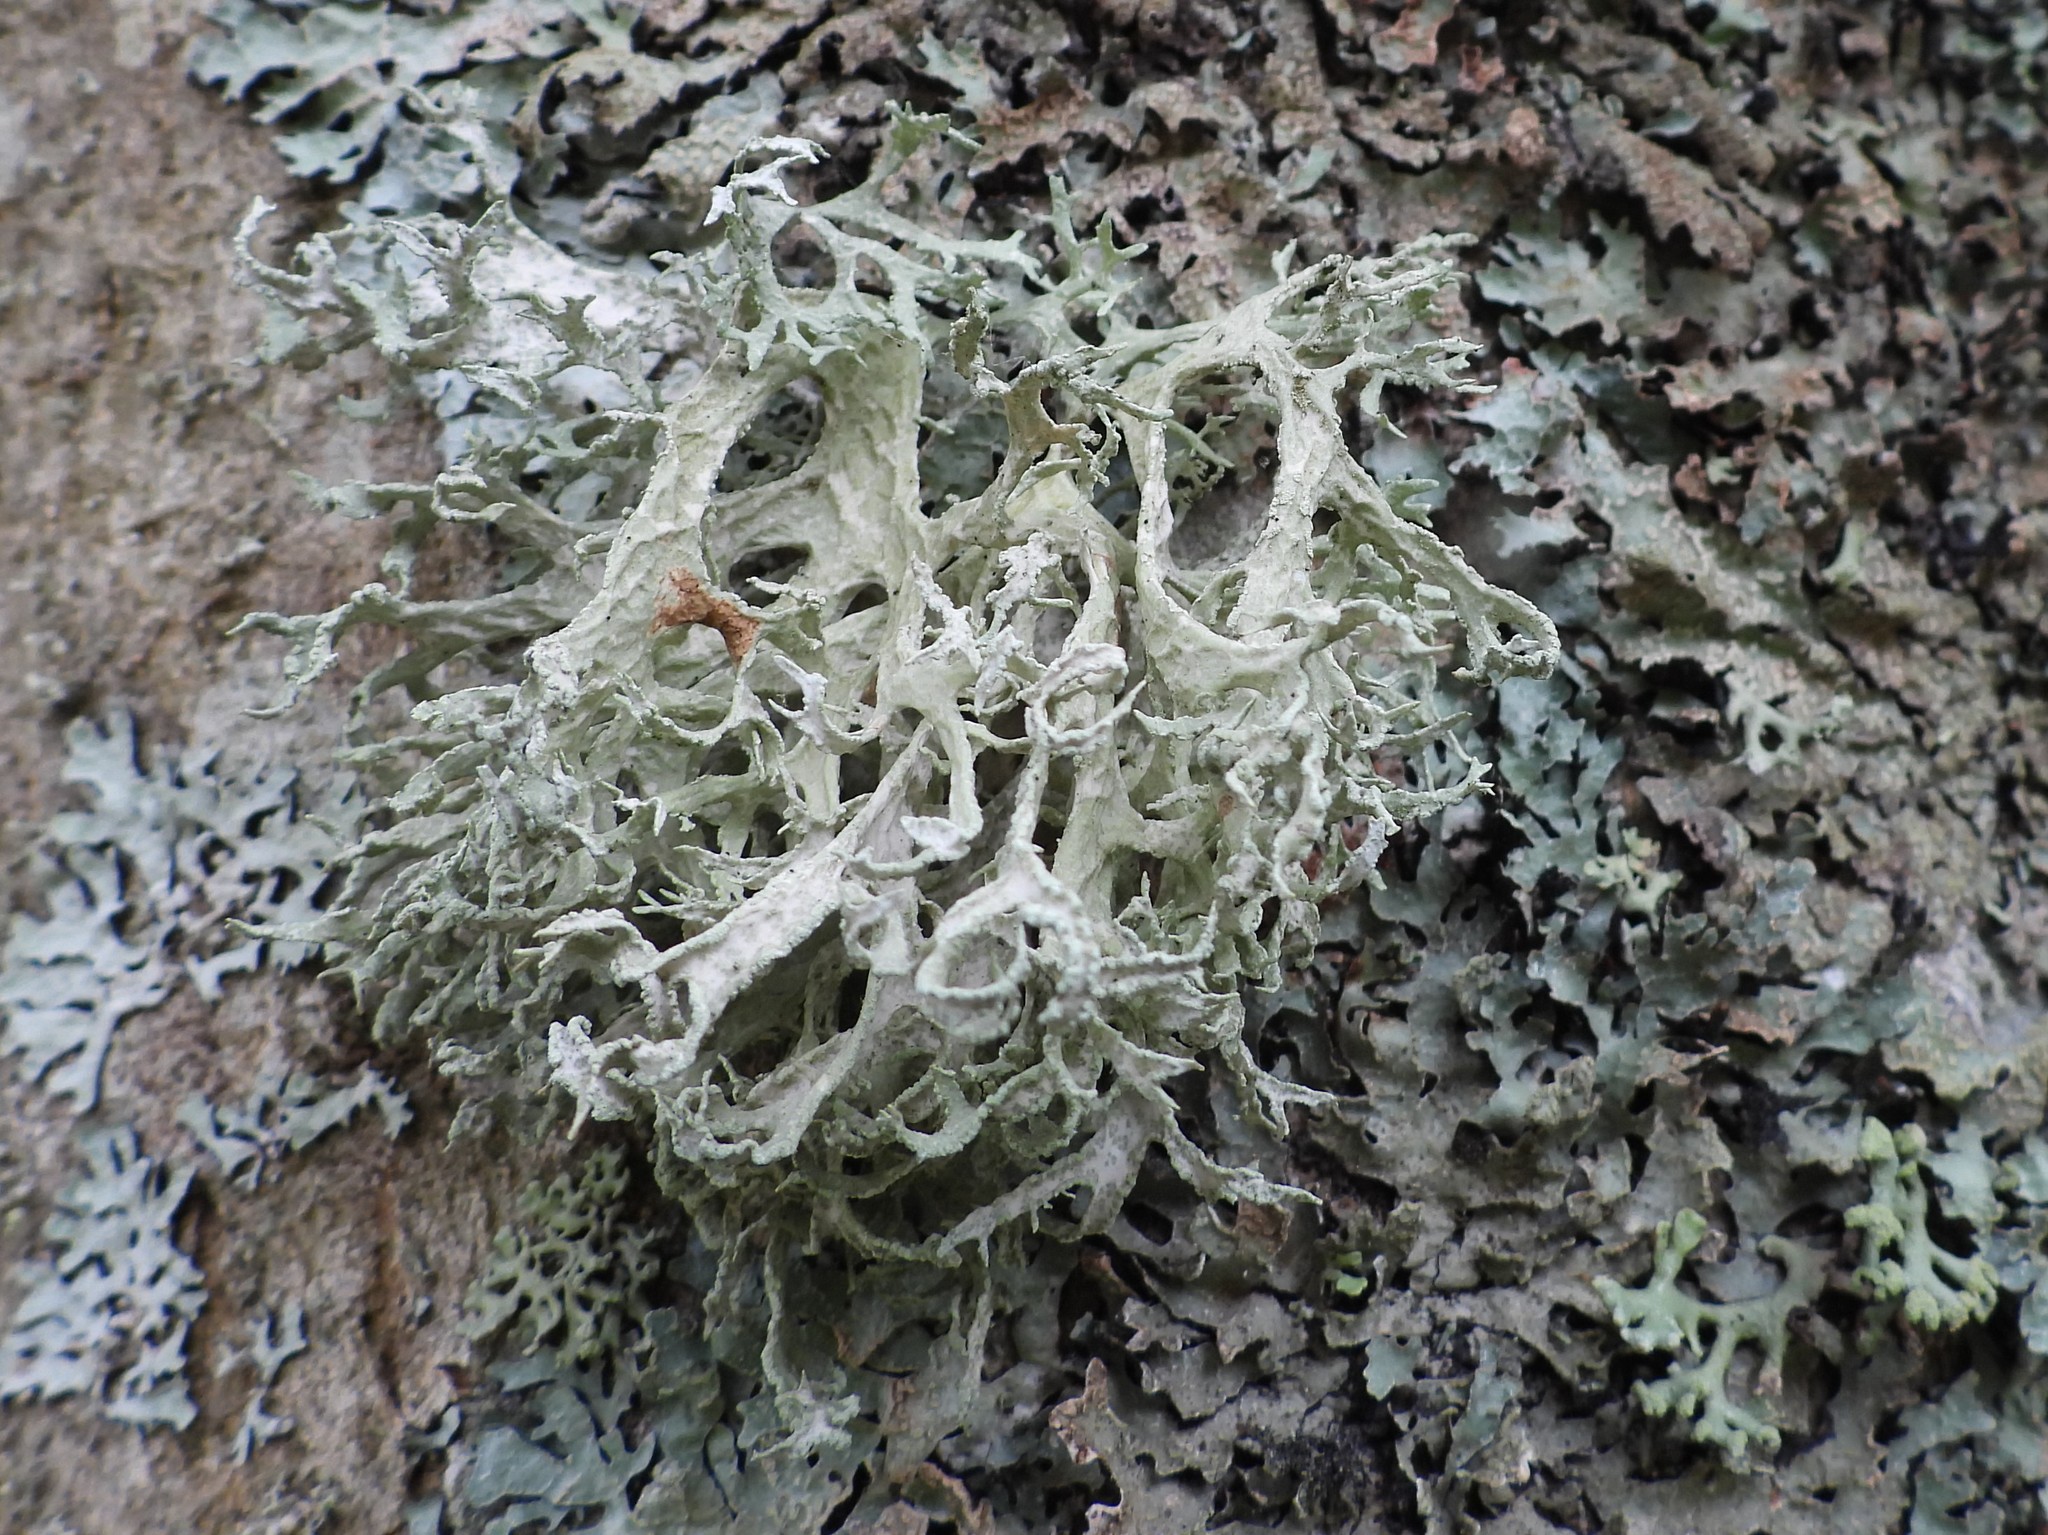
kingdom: Fungi
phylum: Ascomycota
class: Lecanoromycetes
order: Lecanorales
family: Parmeliaceae
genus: Evernia
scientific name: Evernia prunastri
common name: Oak moss
